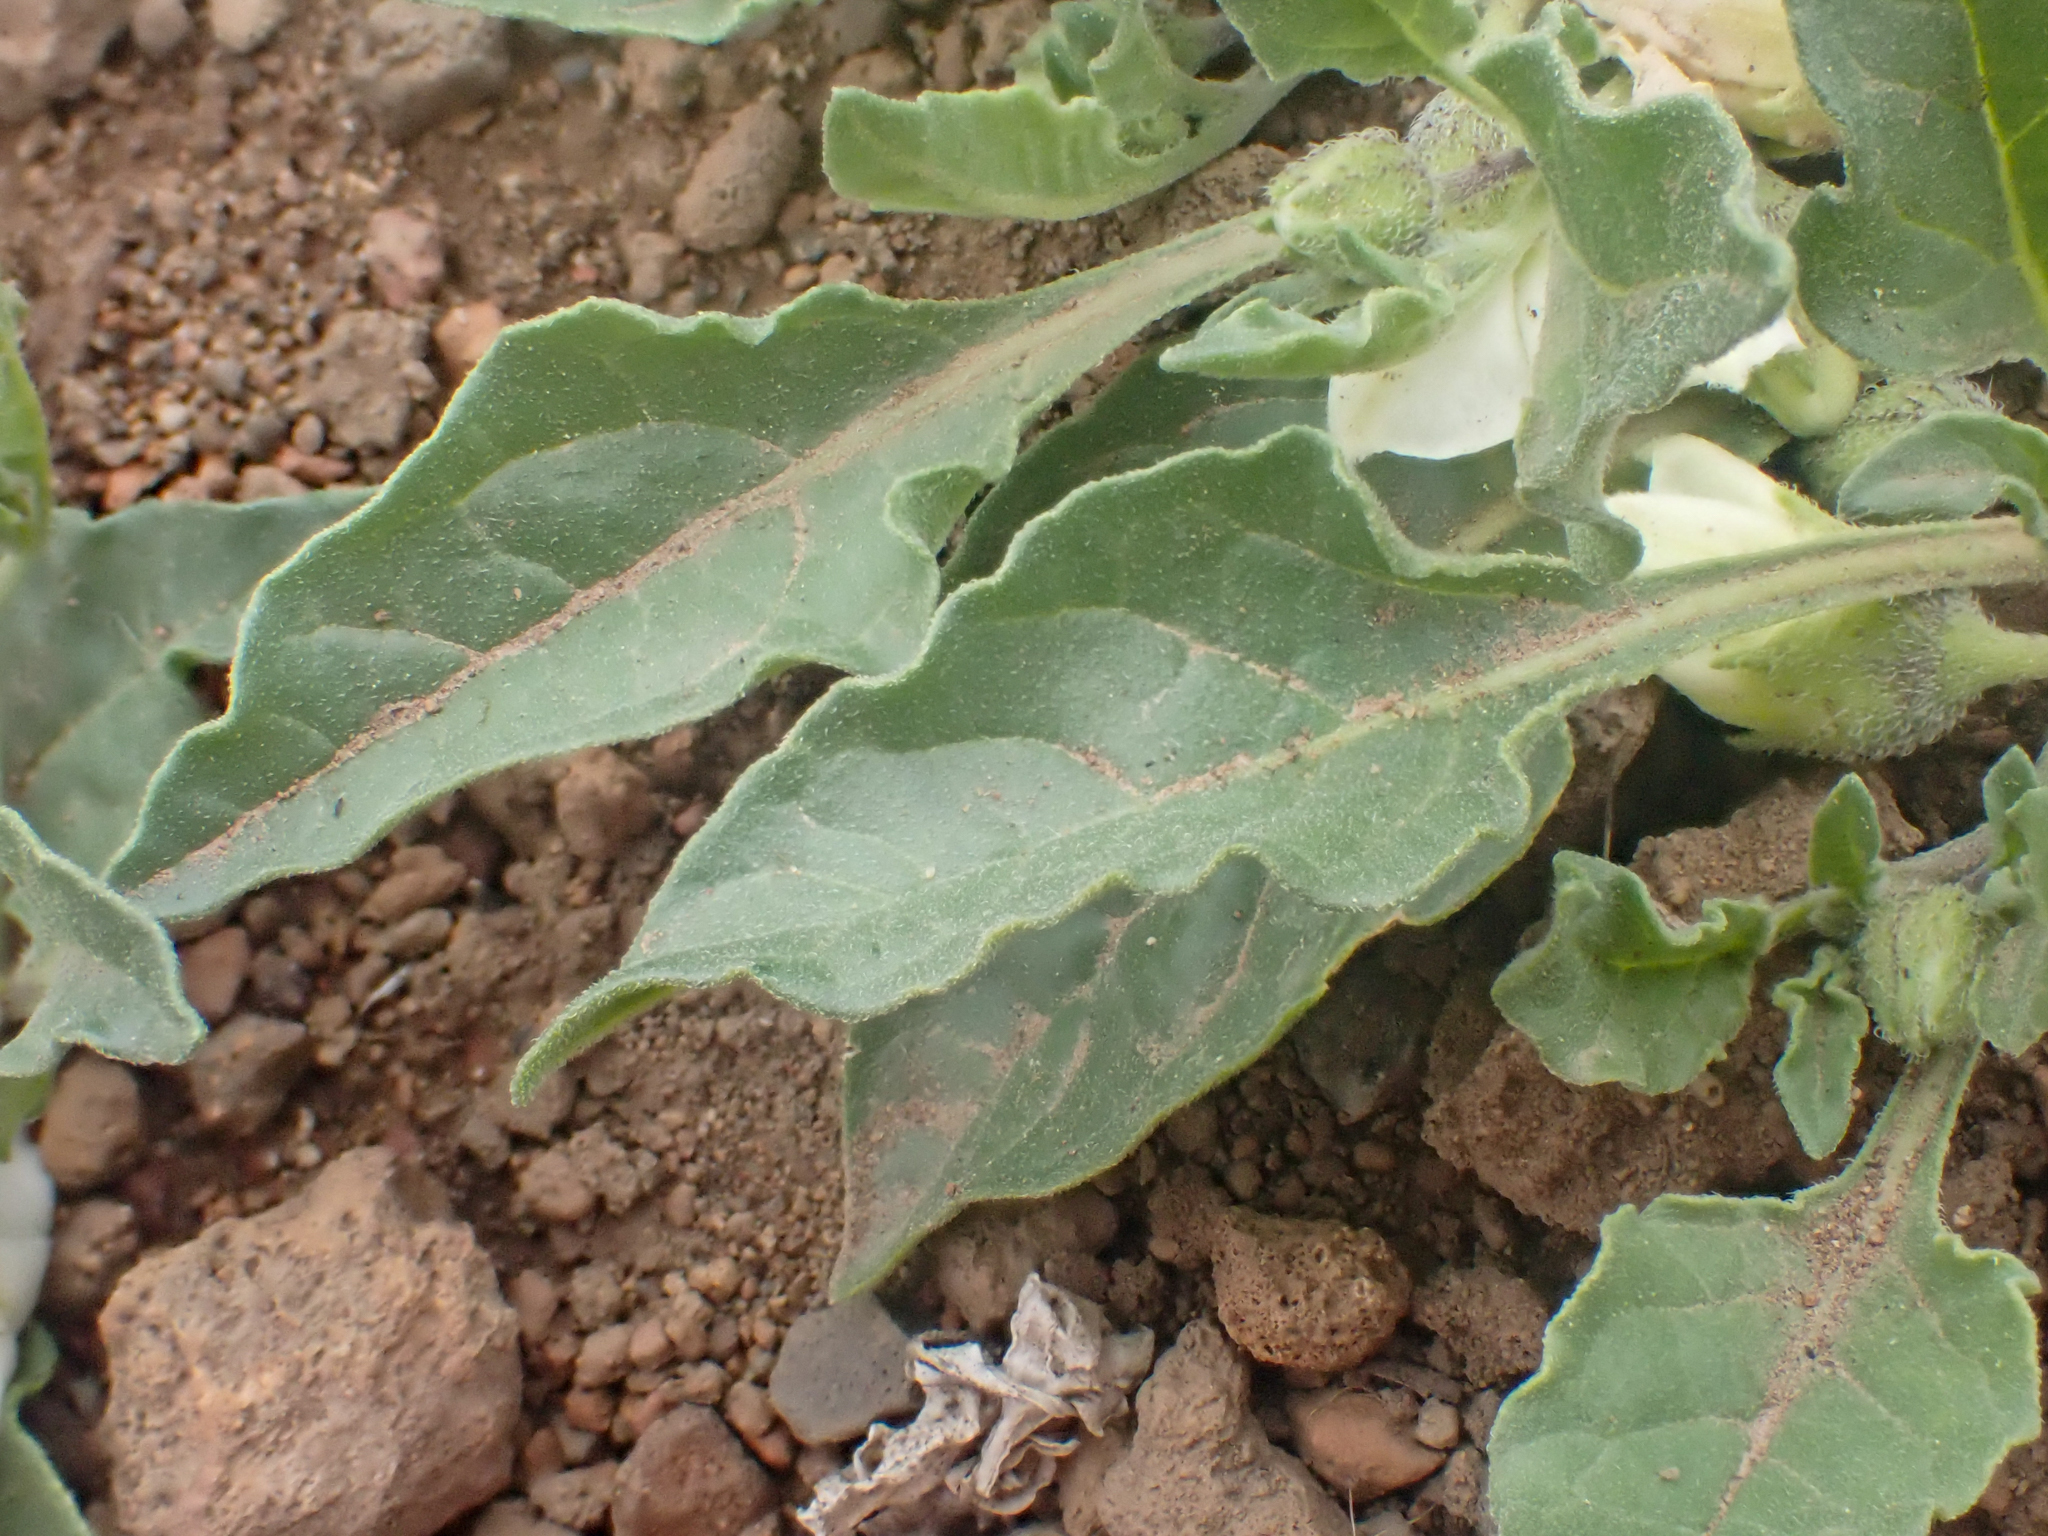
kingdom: Plantae
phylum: Tracheophyta
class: Magnoliopsida
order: Solanales
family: Solanaceae
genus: Leucophysalis
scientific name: Leucophysalis nana
